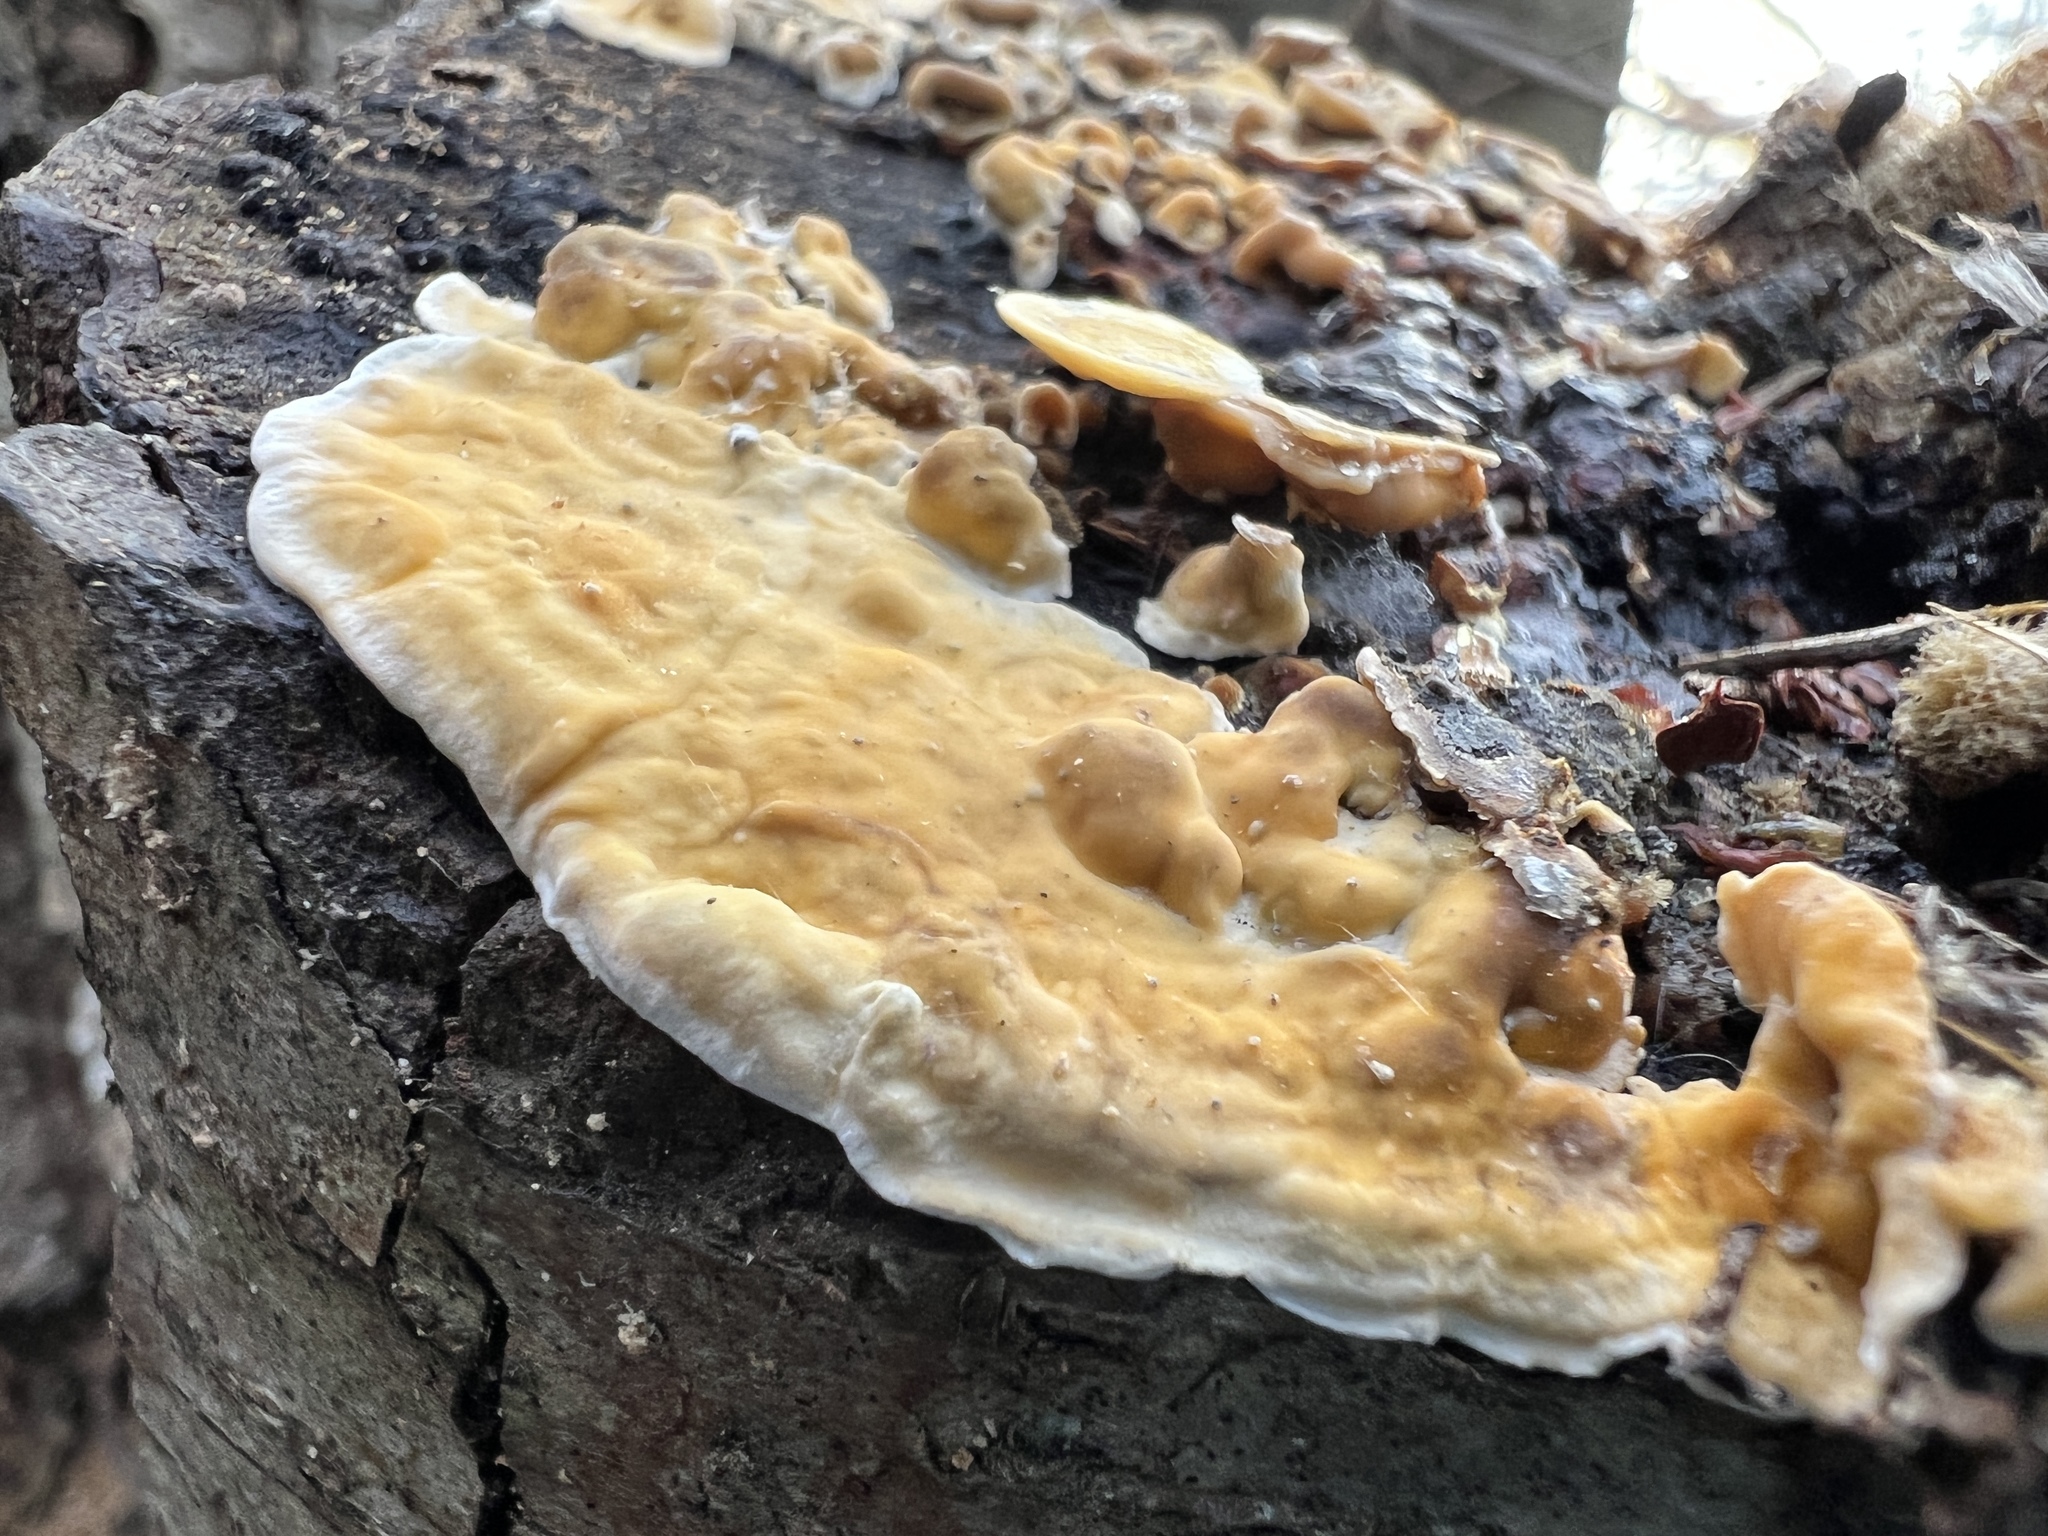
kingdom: Fungi
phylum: Basidiomycota
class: Agaricomycetes
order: Russulales
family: Stereaceae
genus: Stereum
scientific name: Stereum hirsutum
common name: Hairy curtain crust
